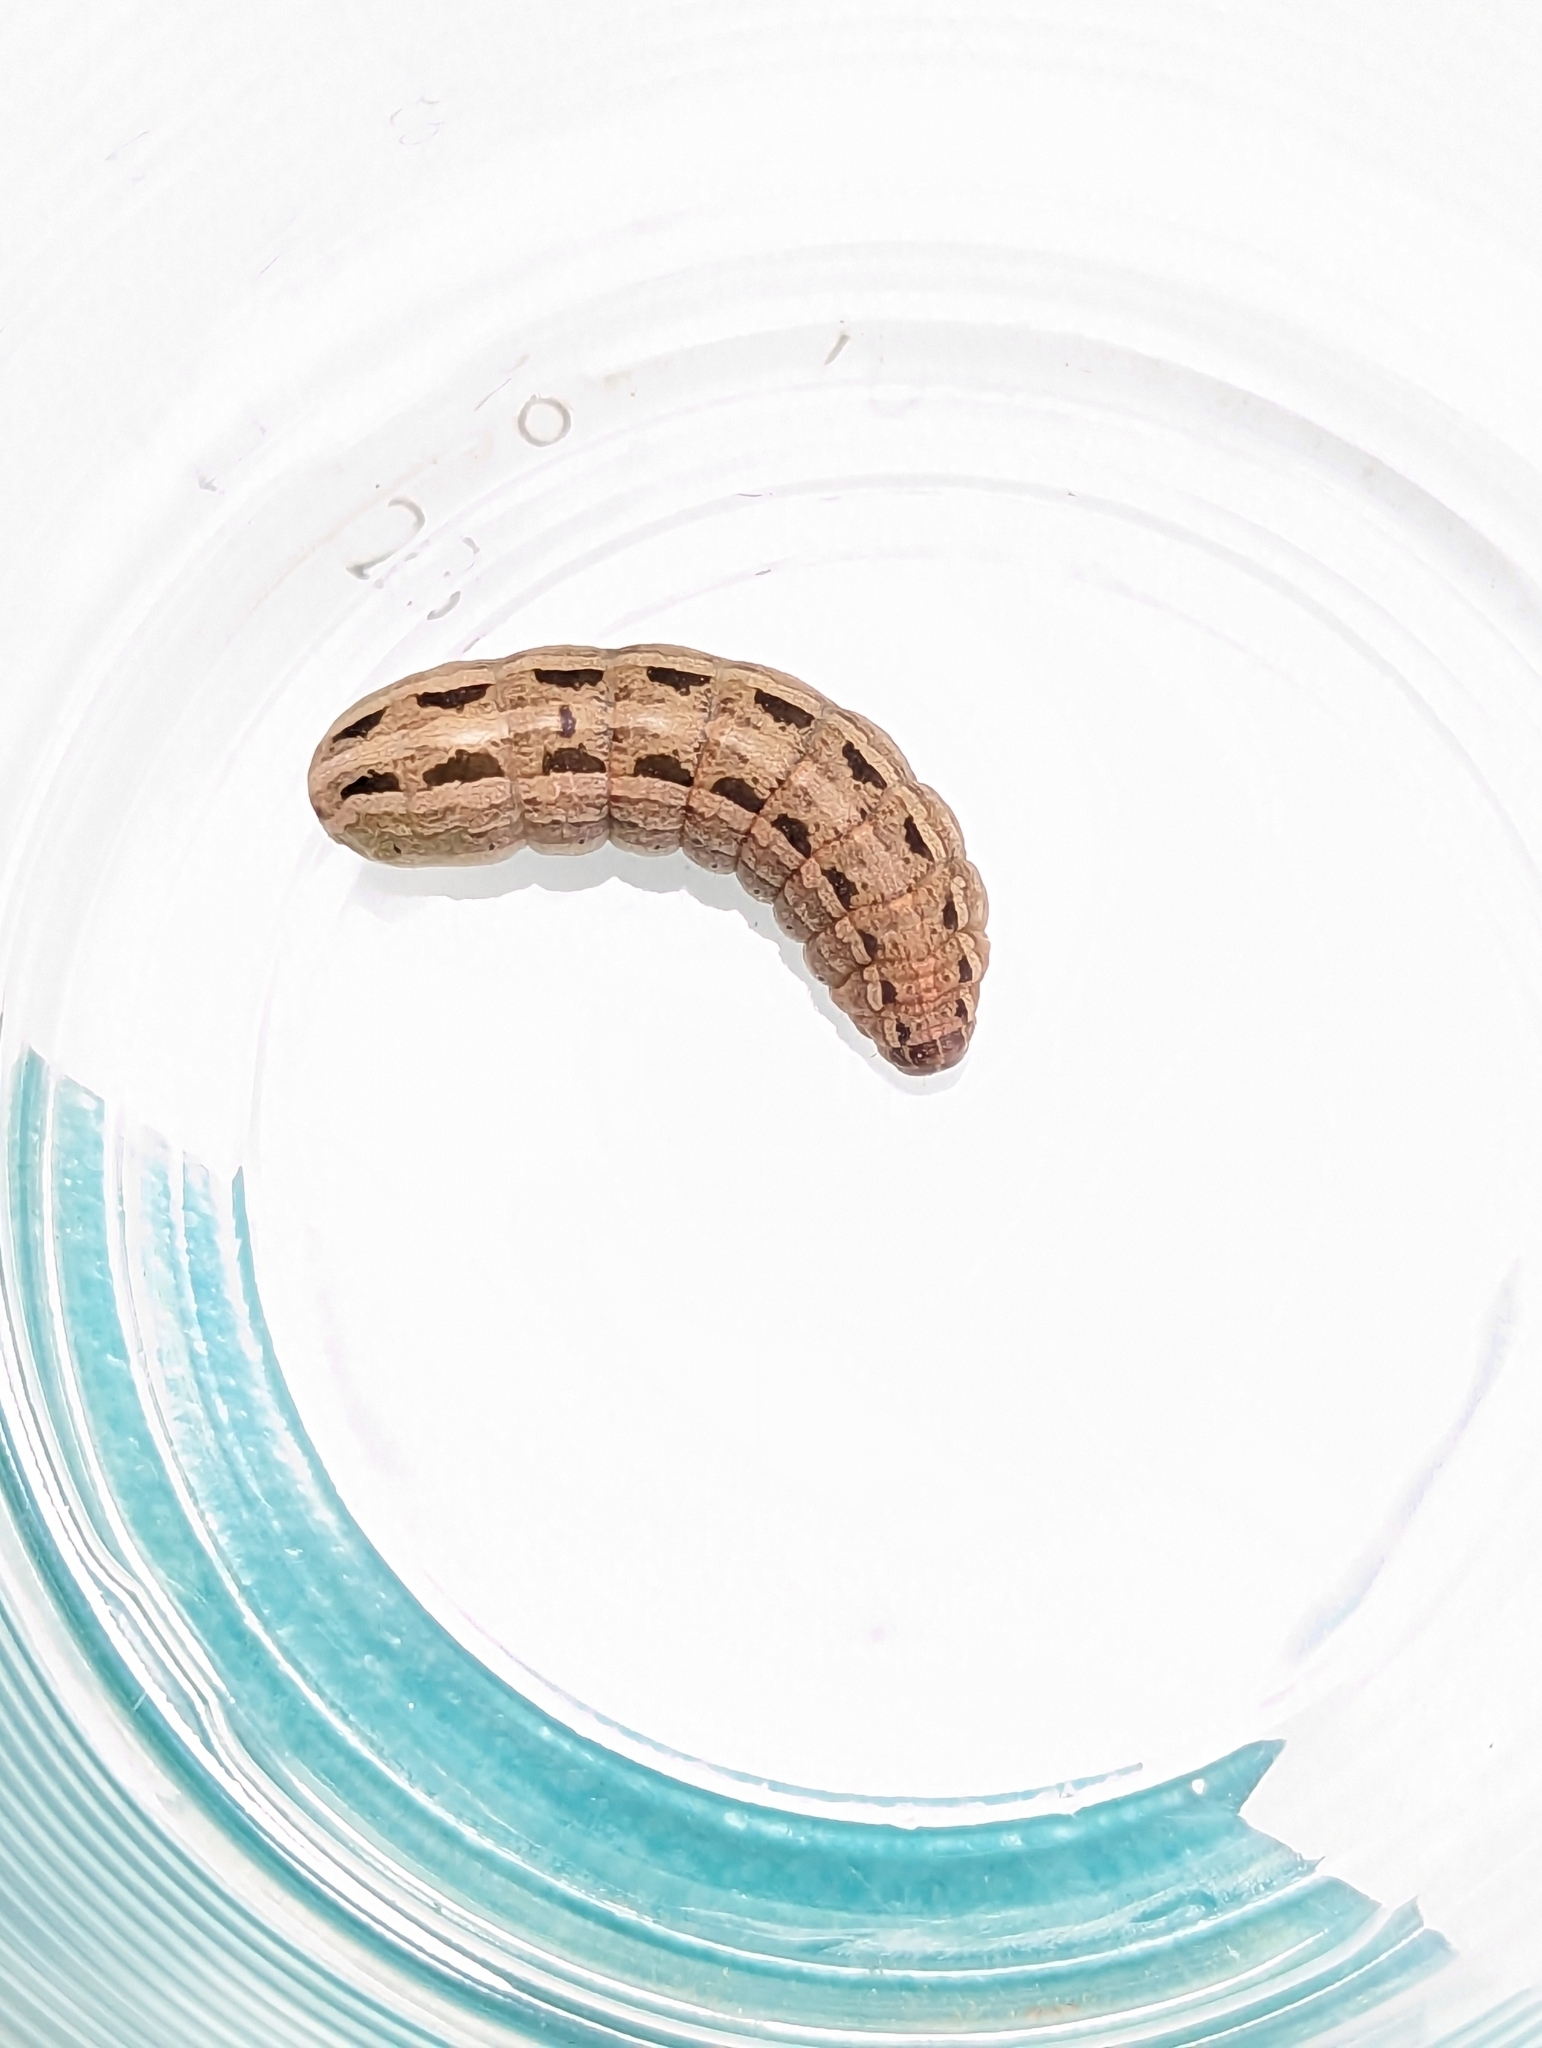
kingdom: Animalia
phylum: Arthropoda
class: Insecta
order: Lepidoptera
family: Noctuidae
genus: Spodoptera
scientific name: Spodoptera litura
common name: Asian cotton leafworm
